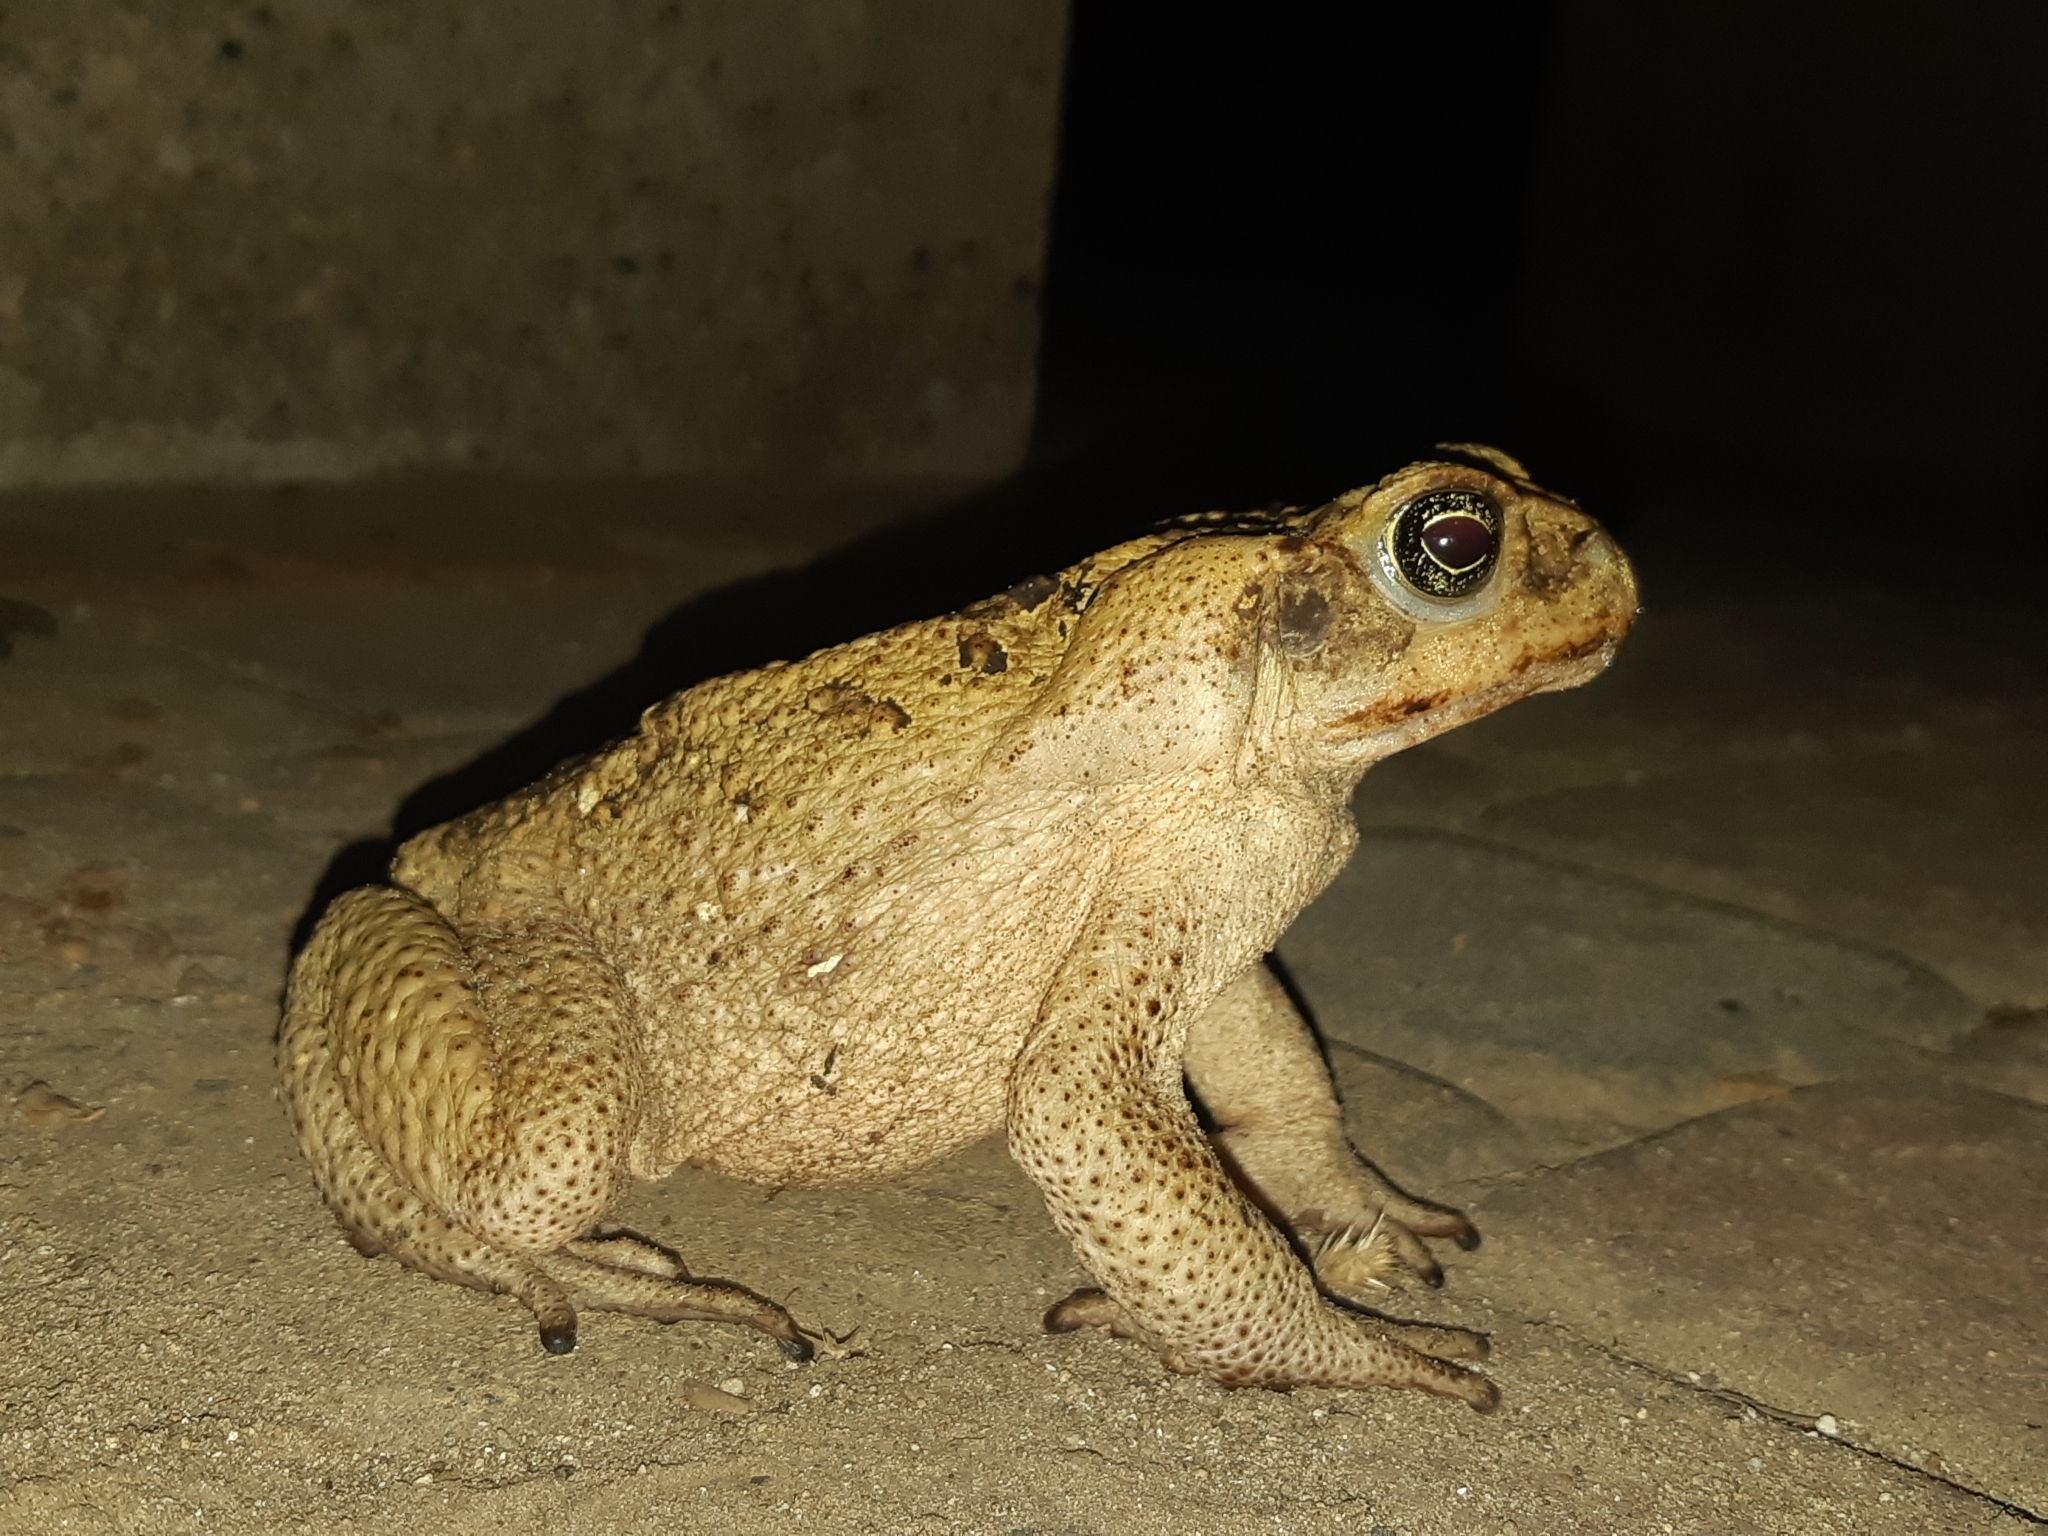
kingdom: Animalia
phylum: Chordata
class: Amphibia
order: Anura
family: Bufonidae
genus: Rhinella
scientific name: Rhinella
